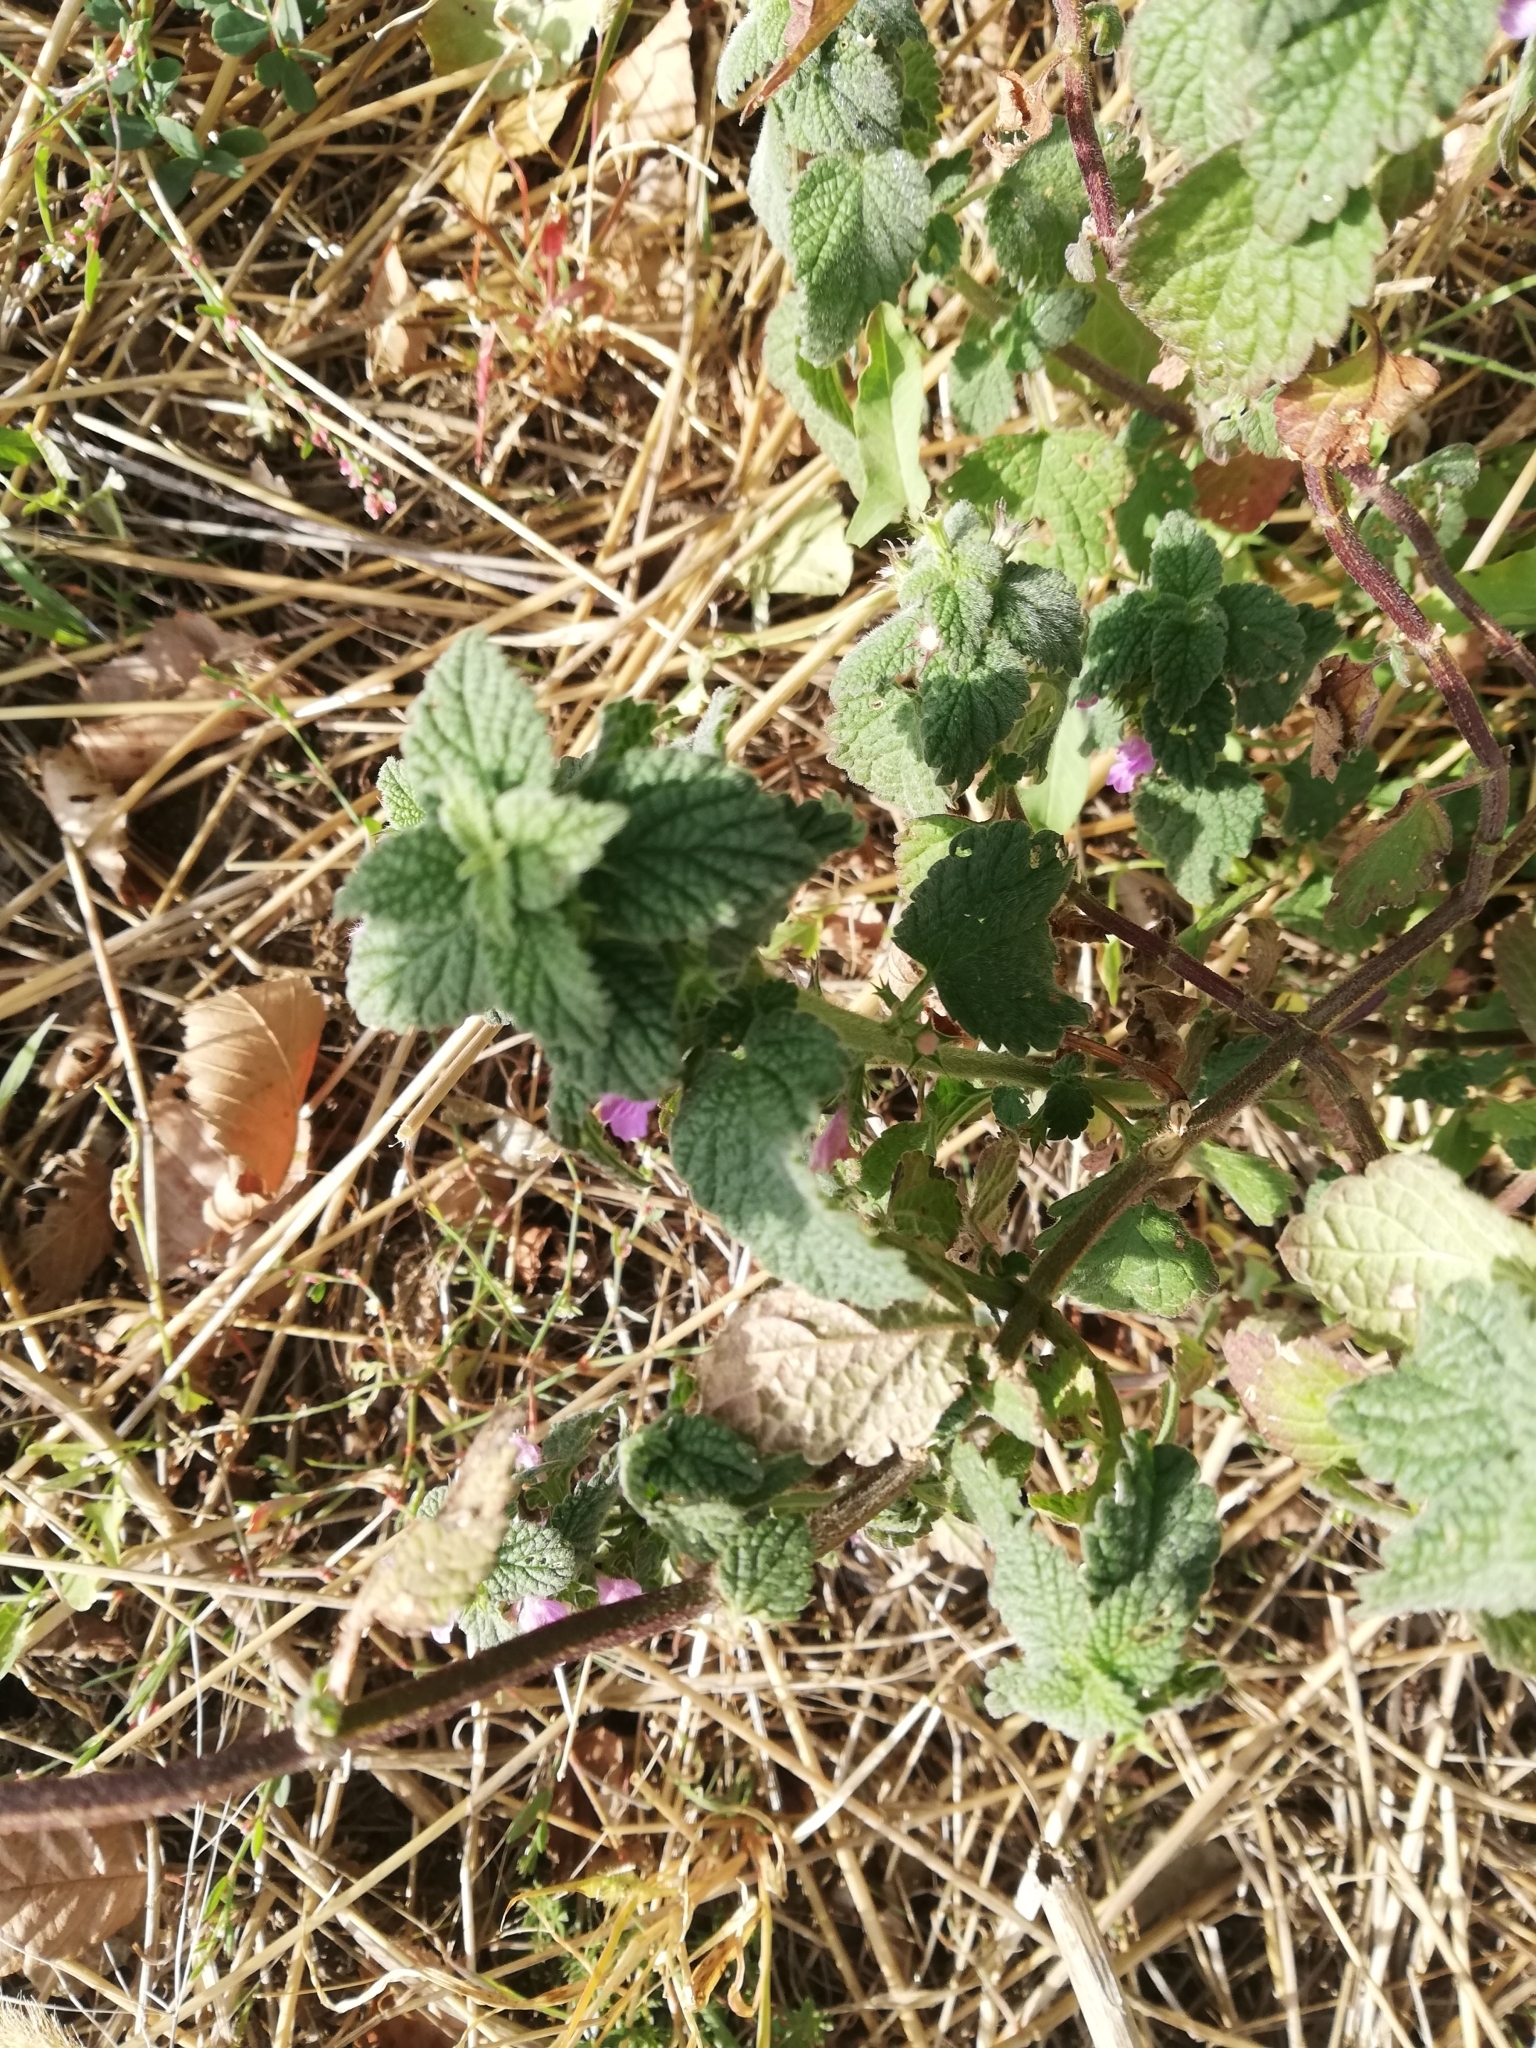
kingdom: Plantae
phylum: Tracheophyta
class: Magnoliopsida
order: Lamiales
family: Lamiaceae
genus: Lamium
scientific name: Lamium purpureum
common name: Red dead-nettle
